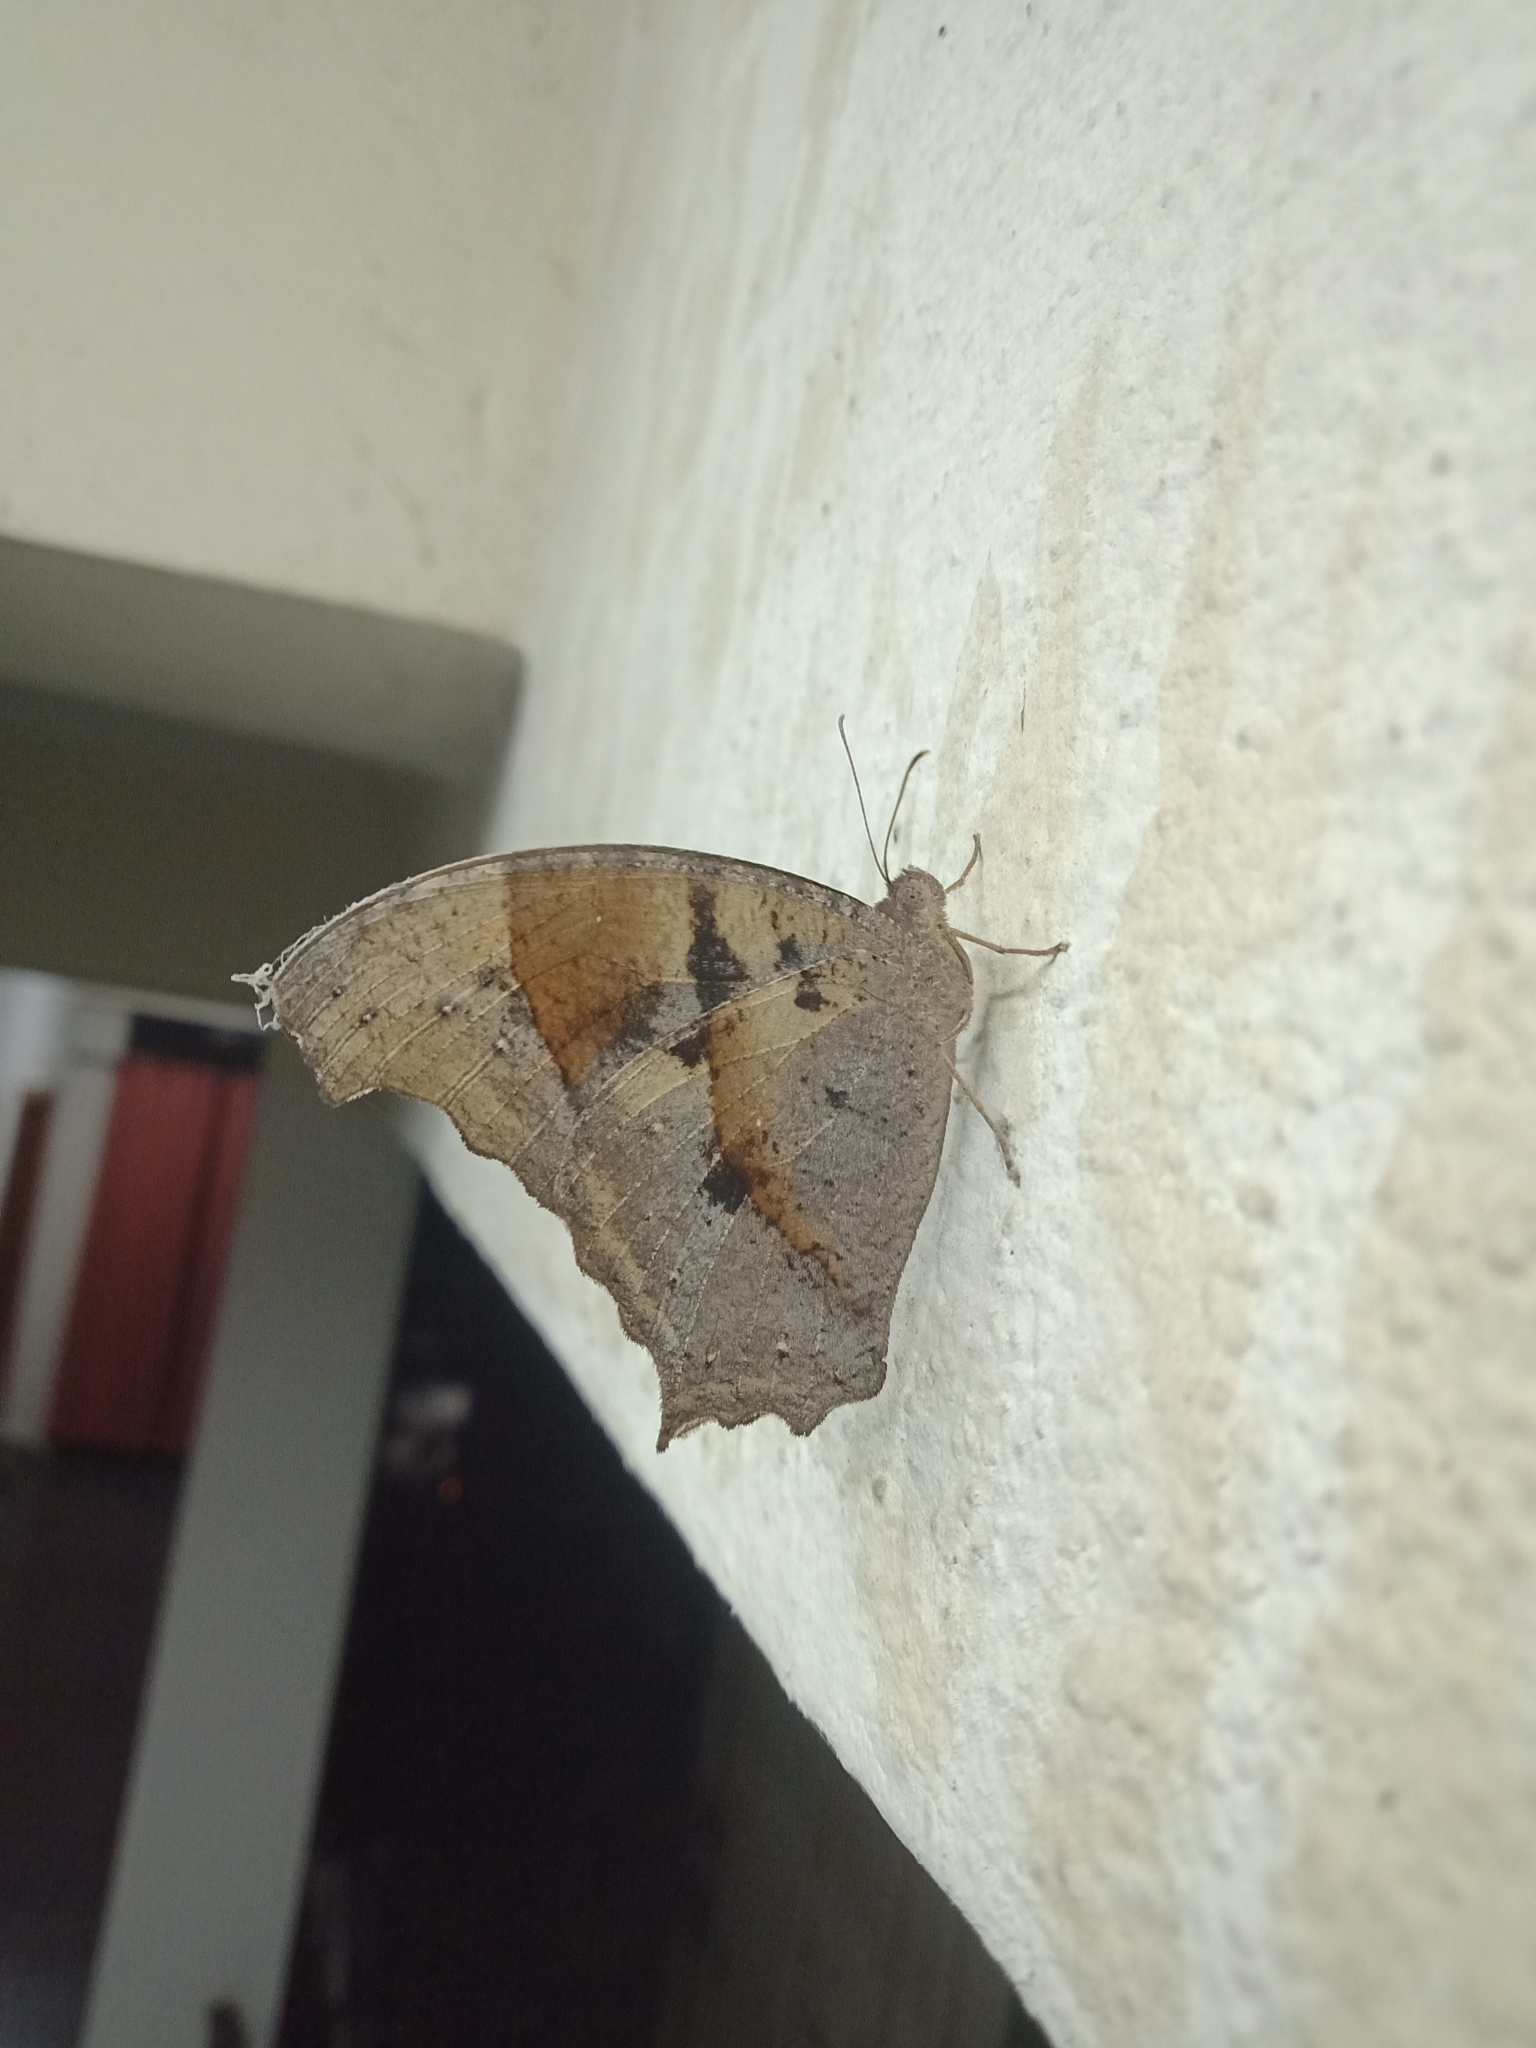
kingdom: Animalia
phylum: Arthropoda
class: Insecta
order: Lepidoptera
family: Nymphalidae
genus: Melanitis
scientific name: Melanitis leda
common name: Twilight brown
